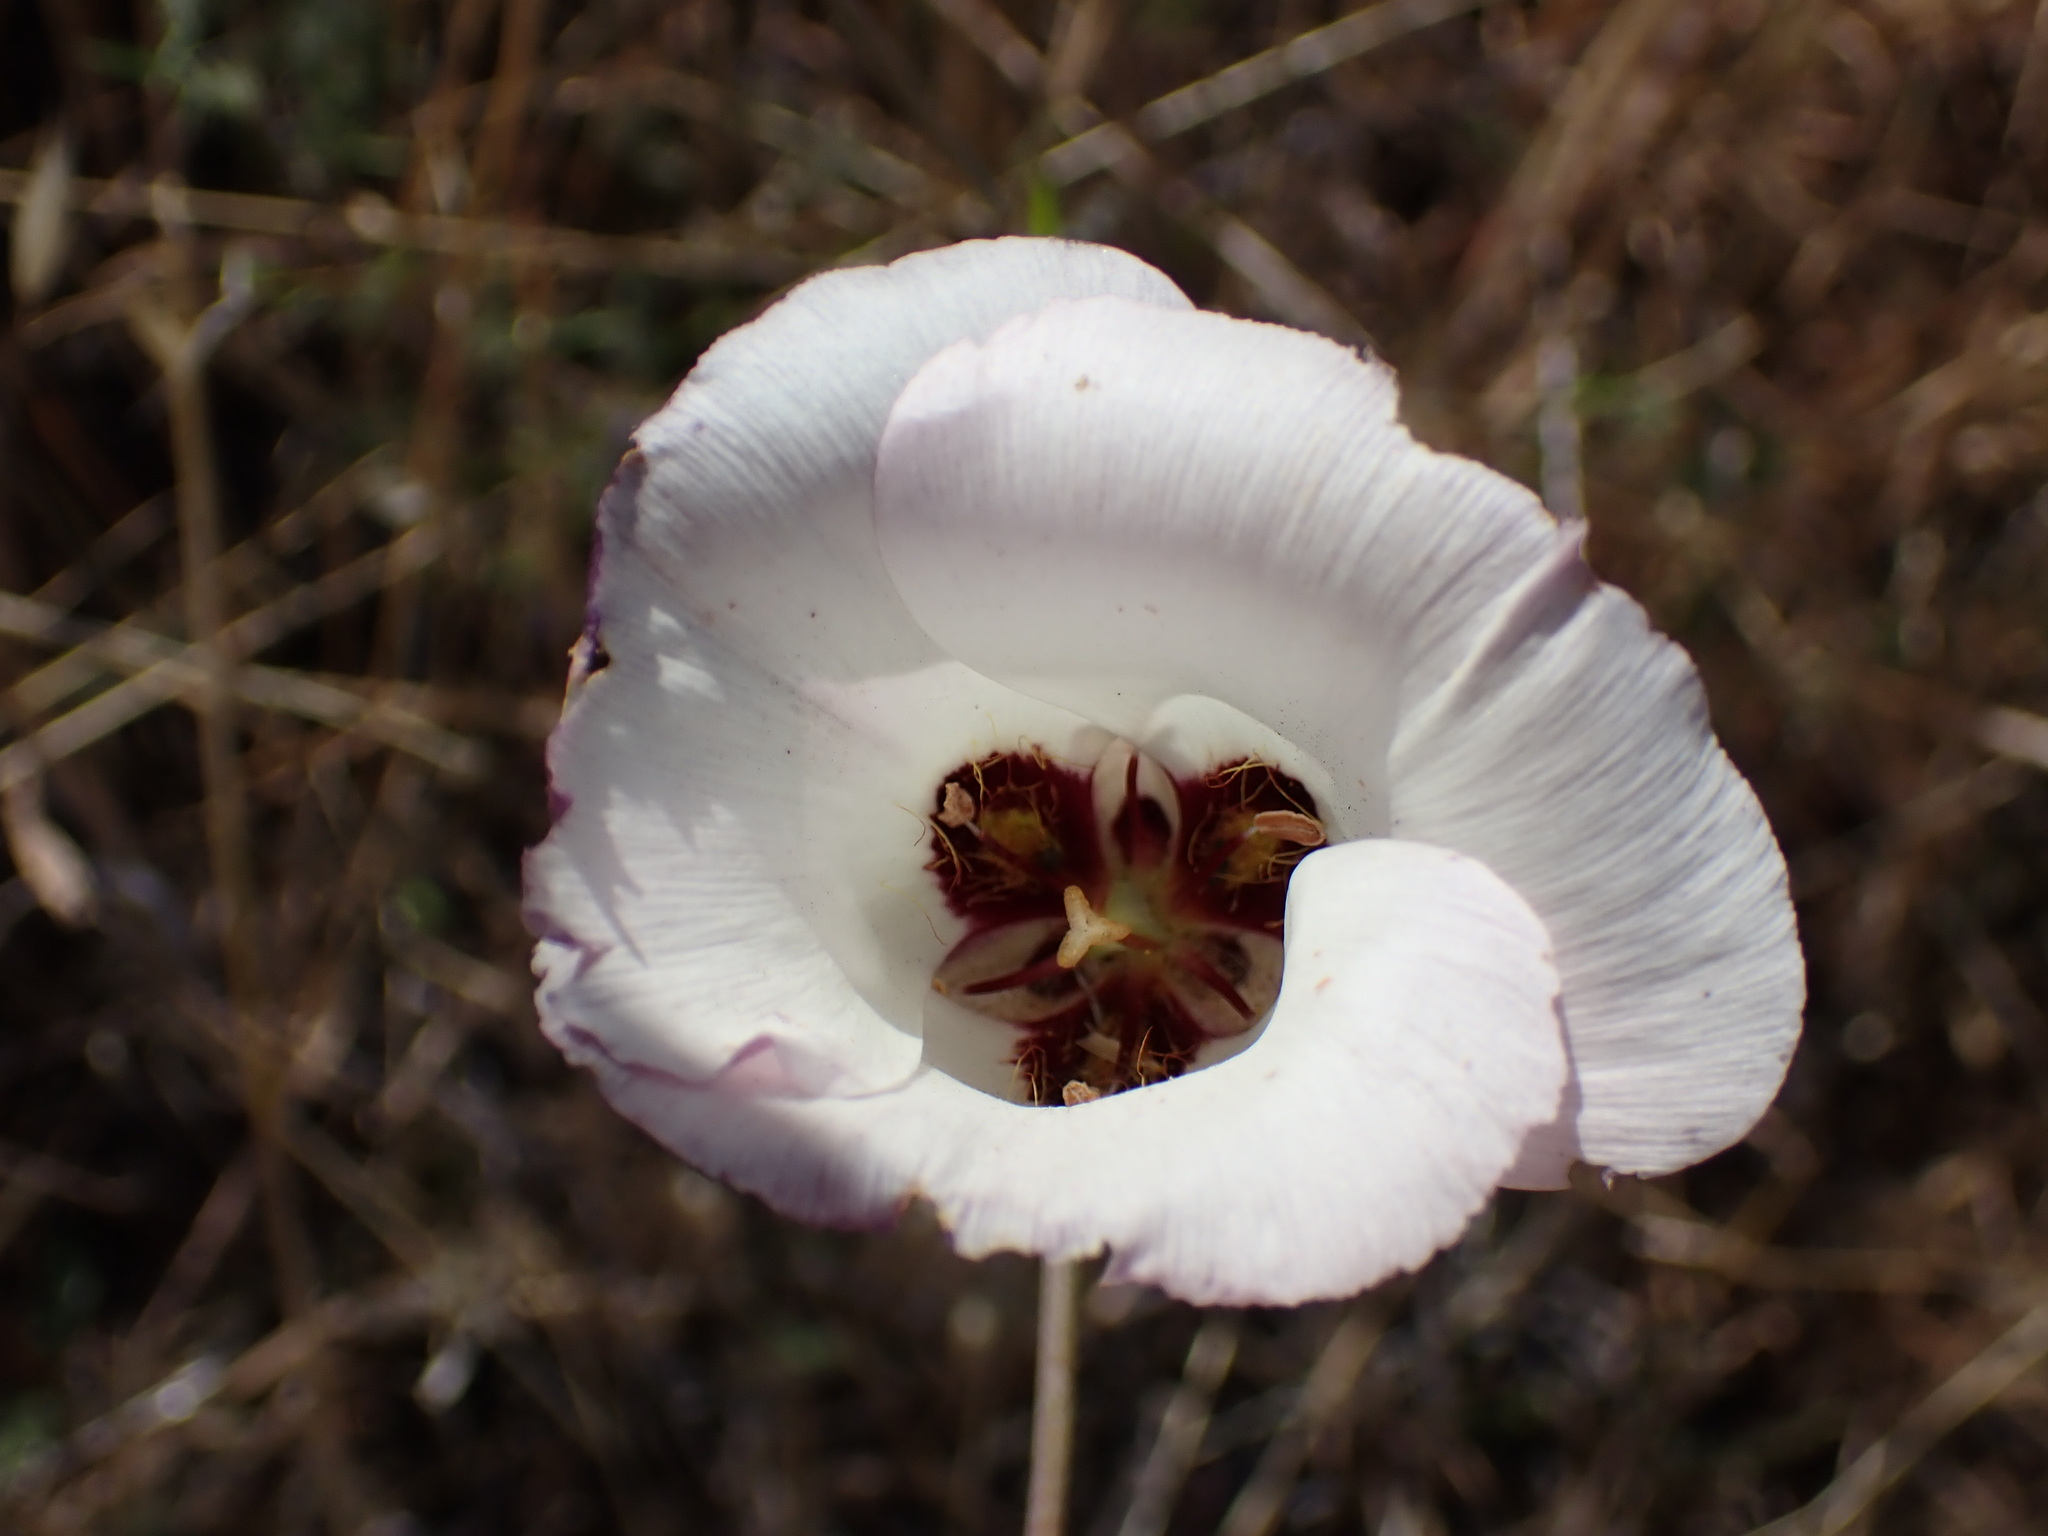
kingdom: Plantae
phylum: Tracheophyta
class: Liliopsida
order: Liliales
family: Liliaceae
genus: Calochortus
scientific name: Calochortus catalinae
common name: Catalina mariposa-lily
